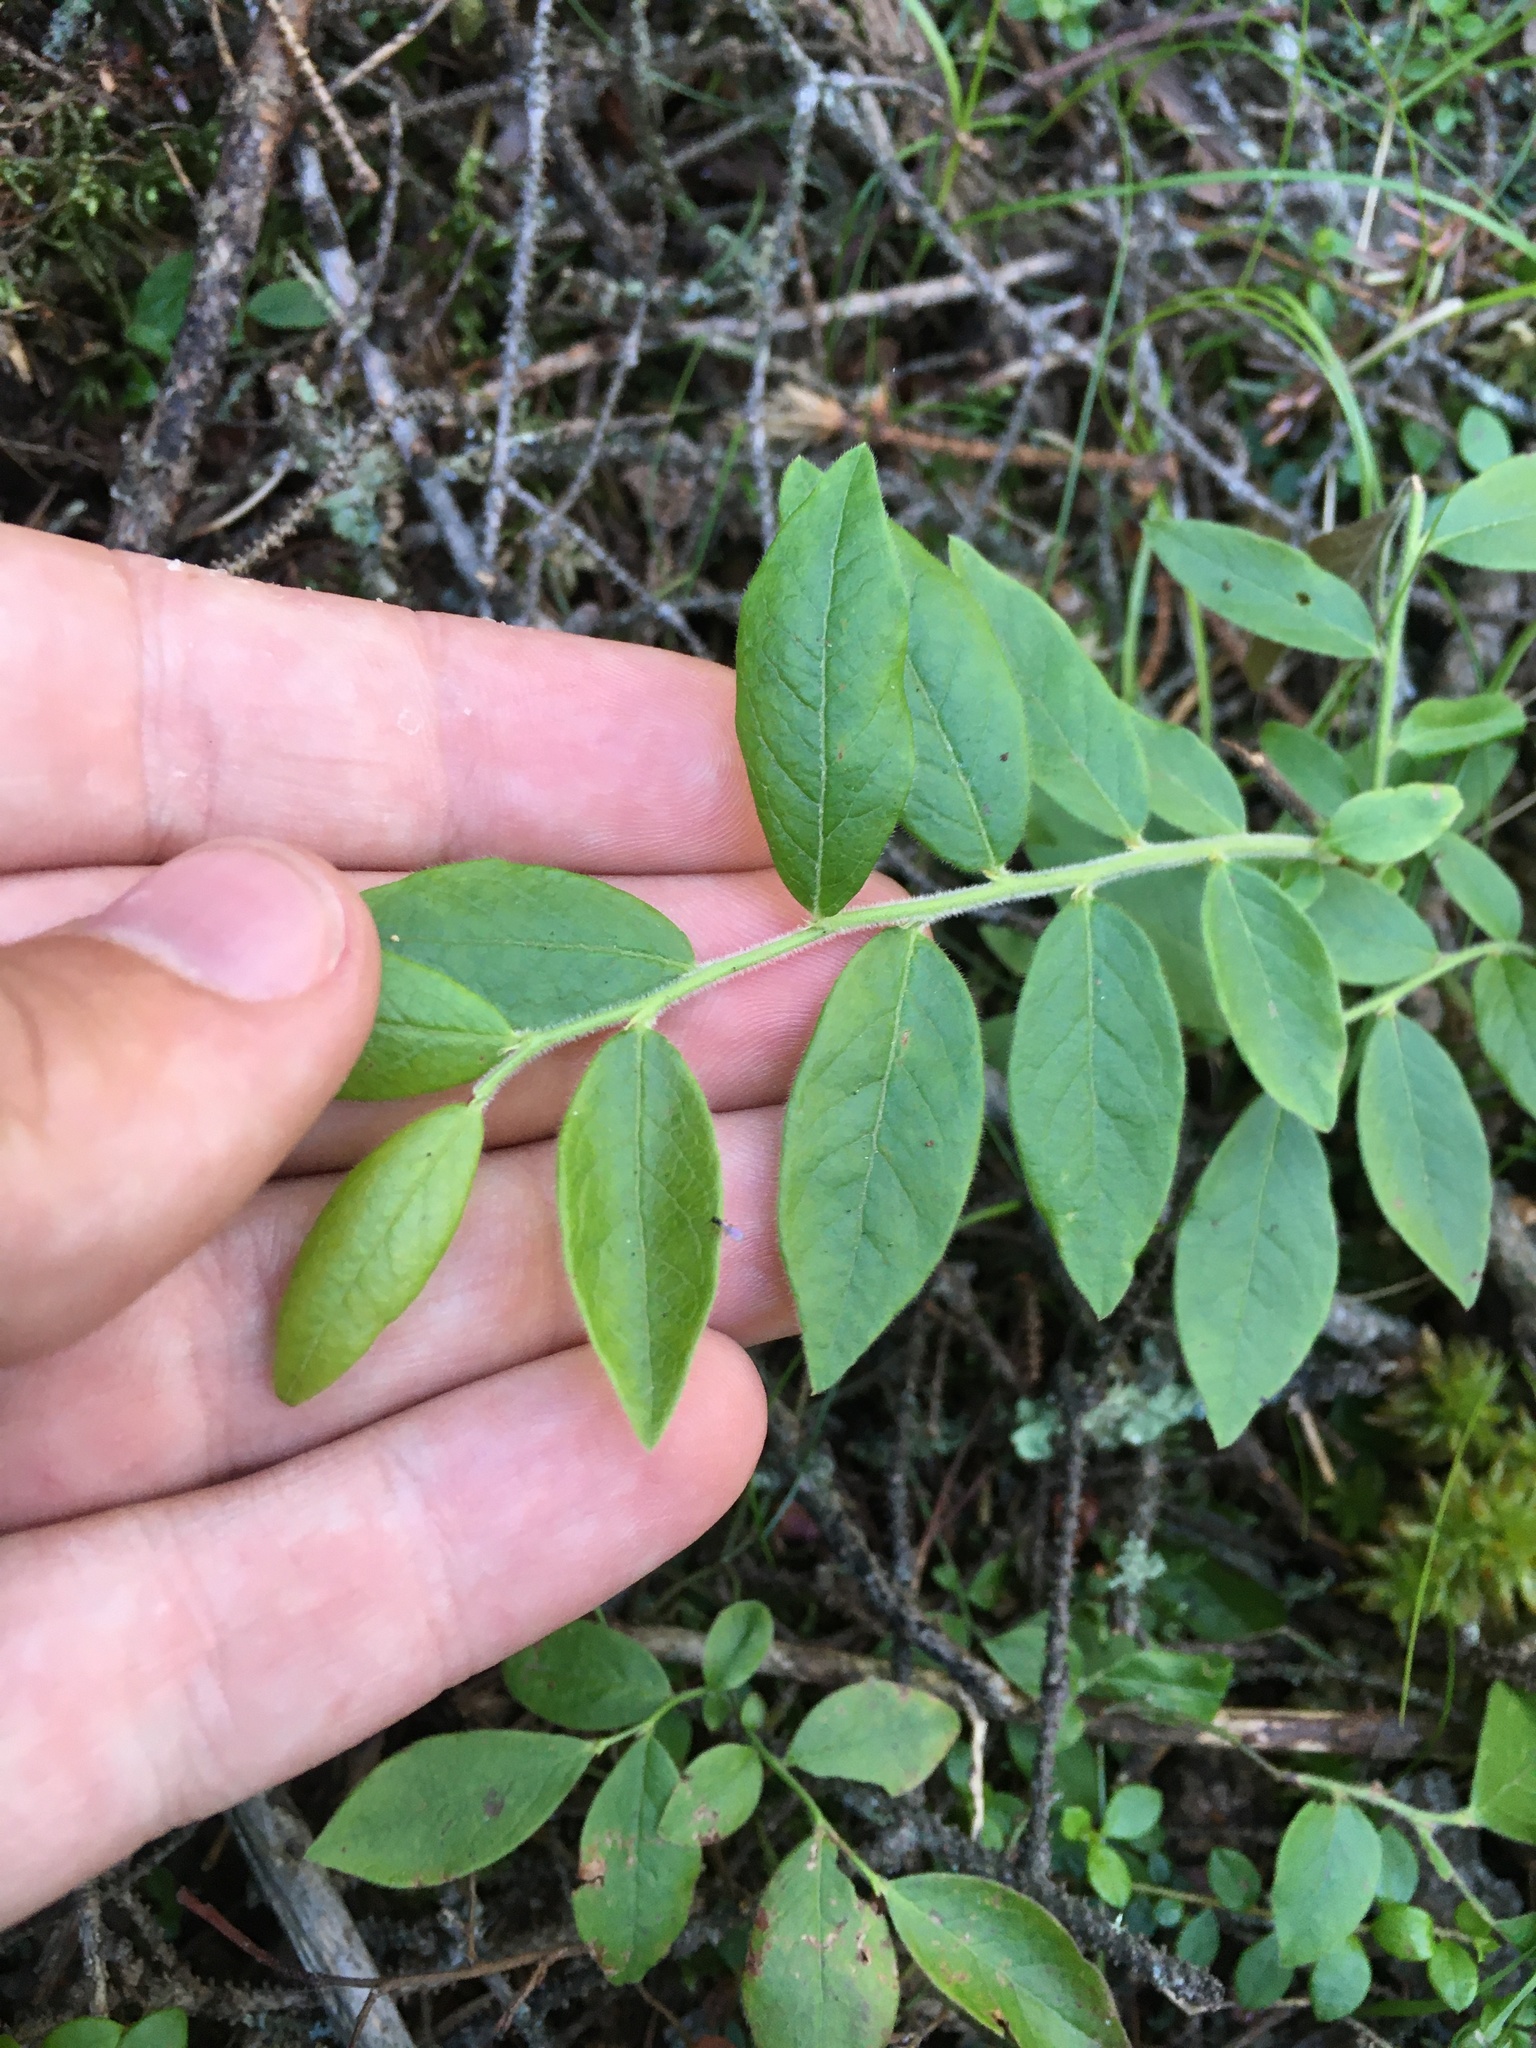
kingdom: Plantae
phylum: Tracheophyta
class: Magnoliopsida
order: Ericales
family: Ericaceae
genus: Vaccinium
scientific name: Vaccinium myrtilloides
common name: Canada blueberry
